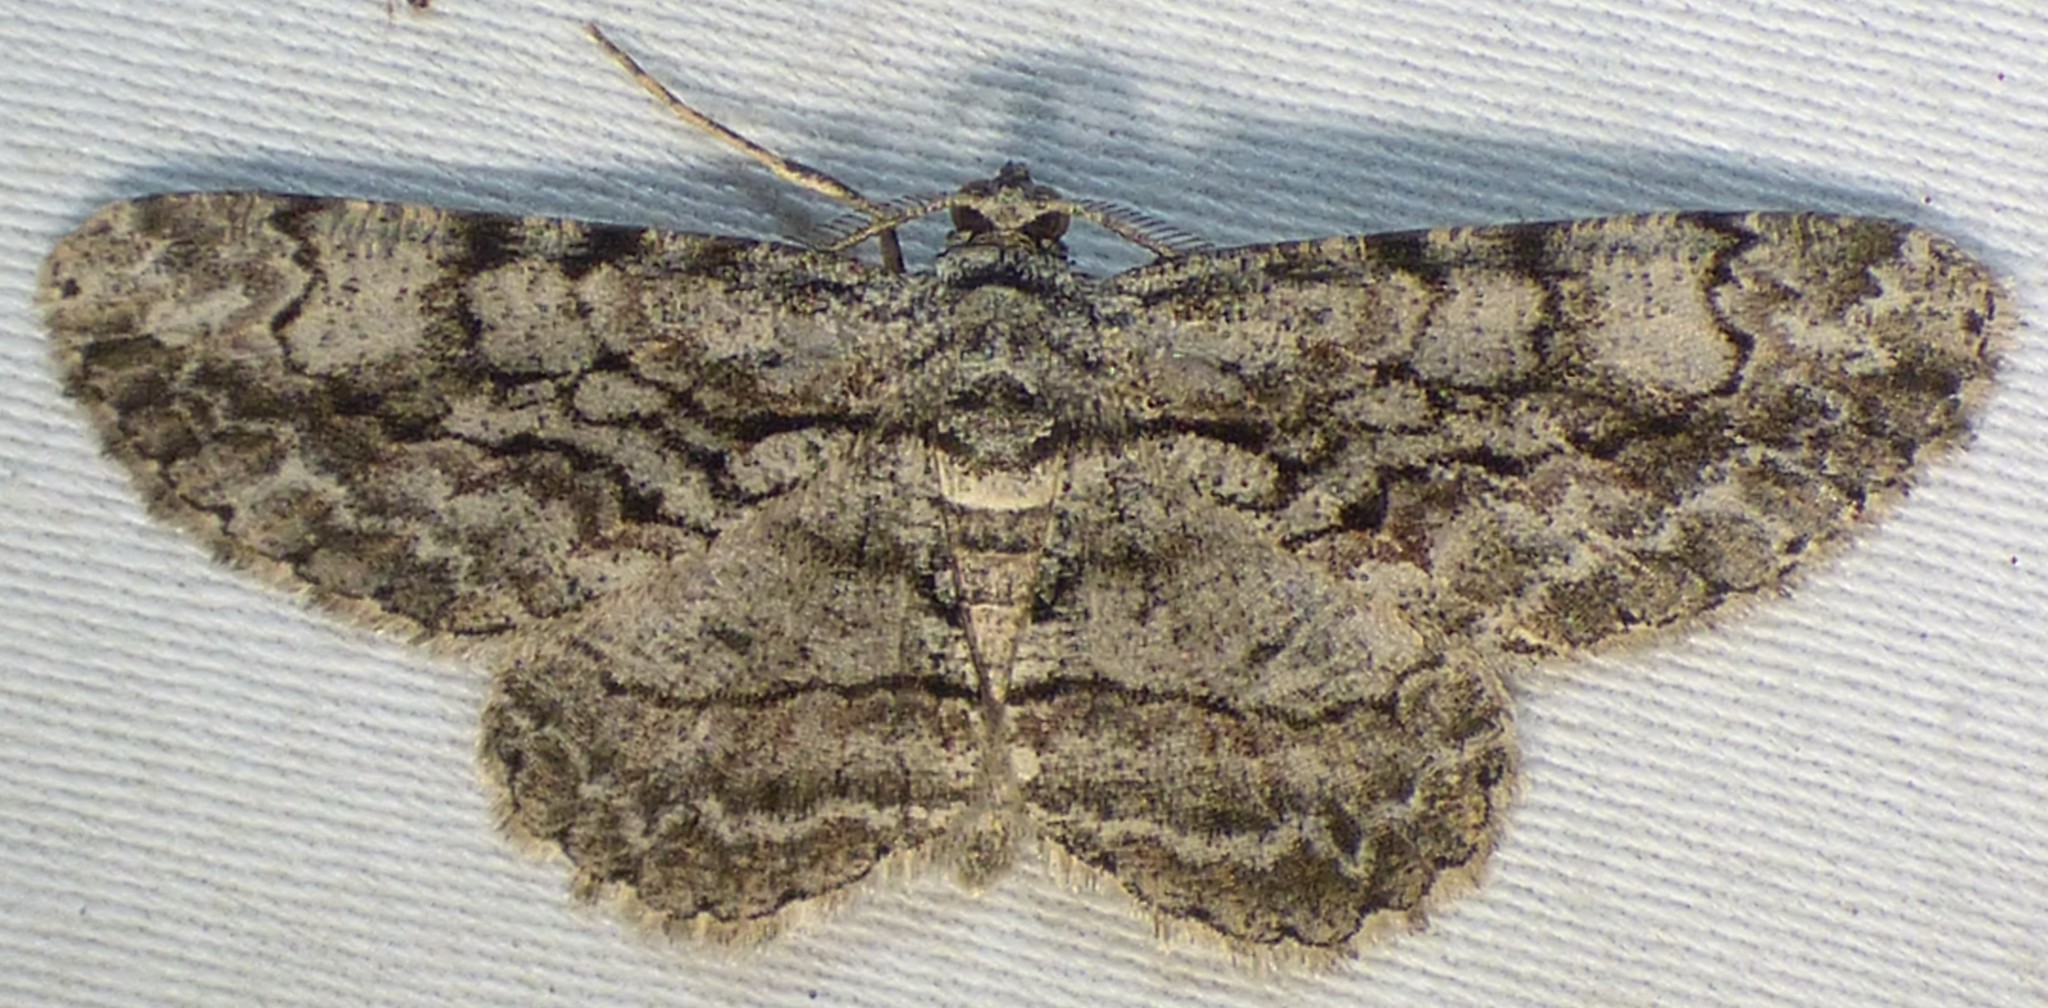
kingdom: Animalia
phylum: Arthropoda
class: Insecta
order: Lepidoptera
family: Geometridae
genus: Anavitrinella
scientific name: Anavitrinella pampinaria
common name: Common gray
